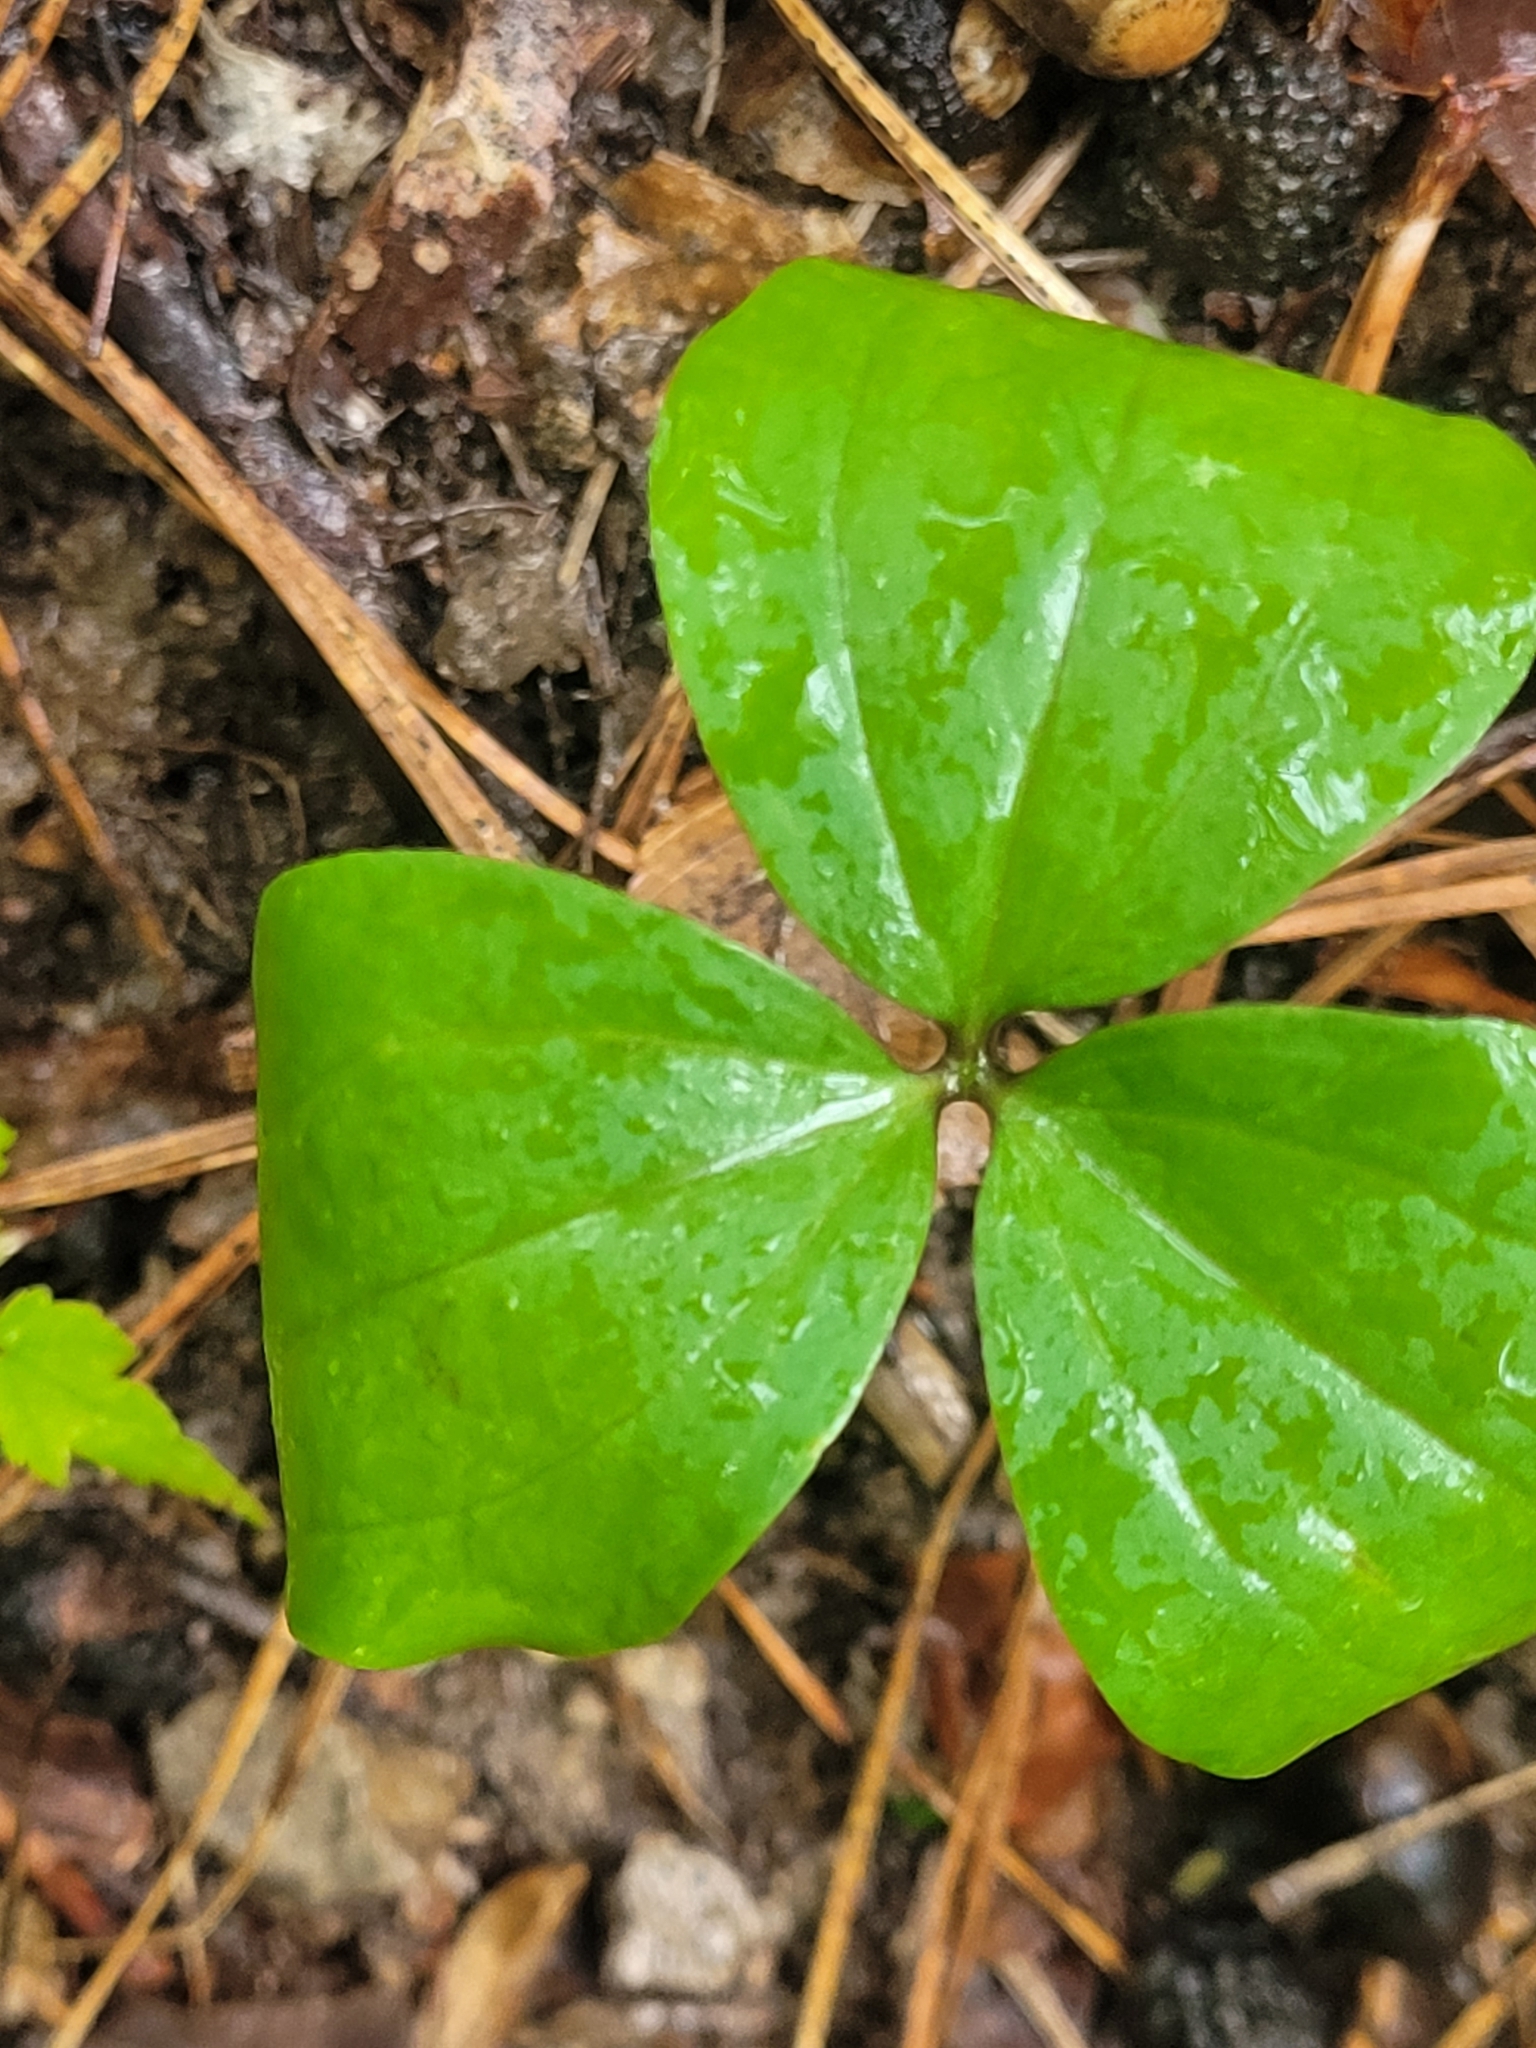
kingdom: Plantae
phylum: Tracheophyta
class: Liliopsida
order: Alismatales
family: Araceae
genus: Arisaema
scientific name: Arisaema triphyllum
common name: Jack-in-the-pulpit
